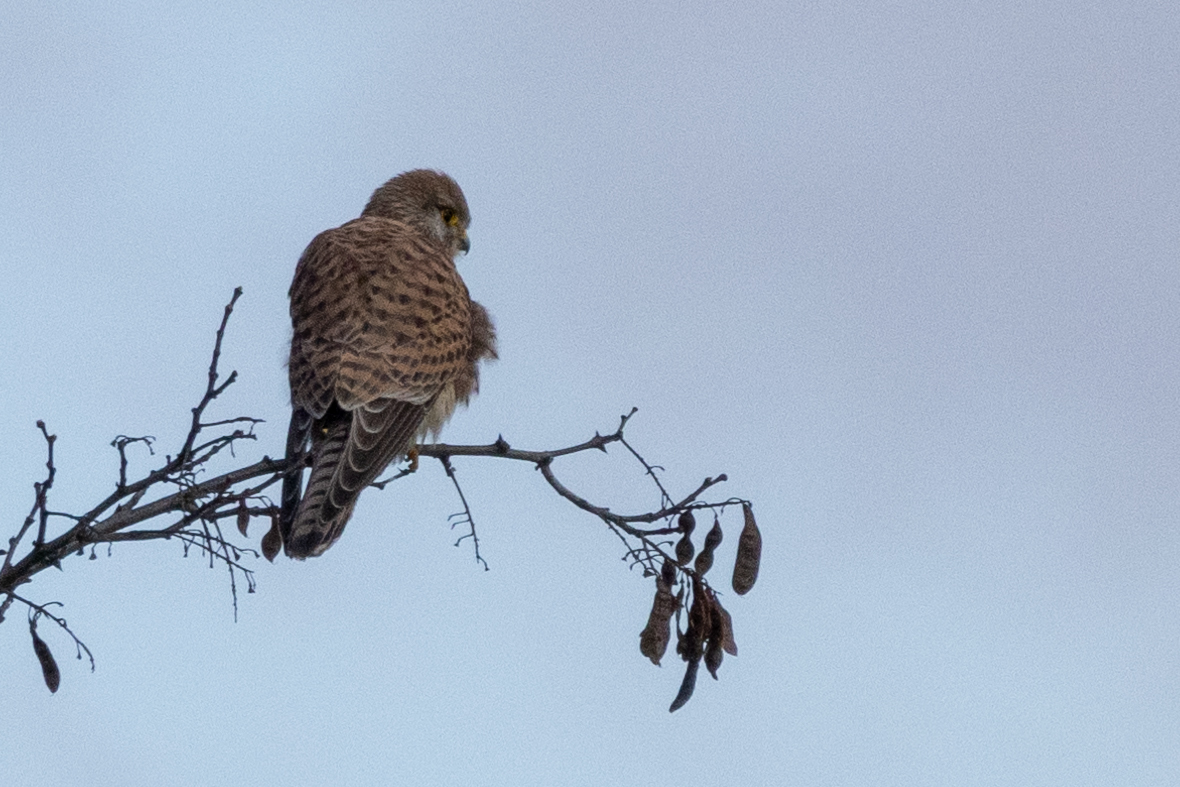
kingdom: Animalia
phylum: Chordata
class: Aves
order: Falconiformes
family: Falconidae
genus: Falco
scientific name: Falco tinnunculus
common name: Common kestrel
